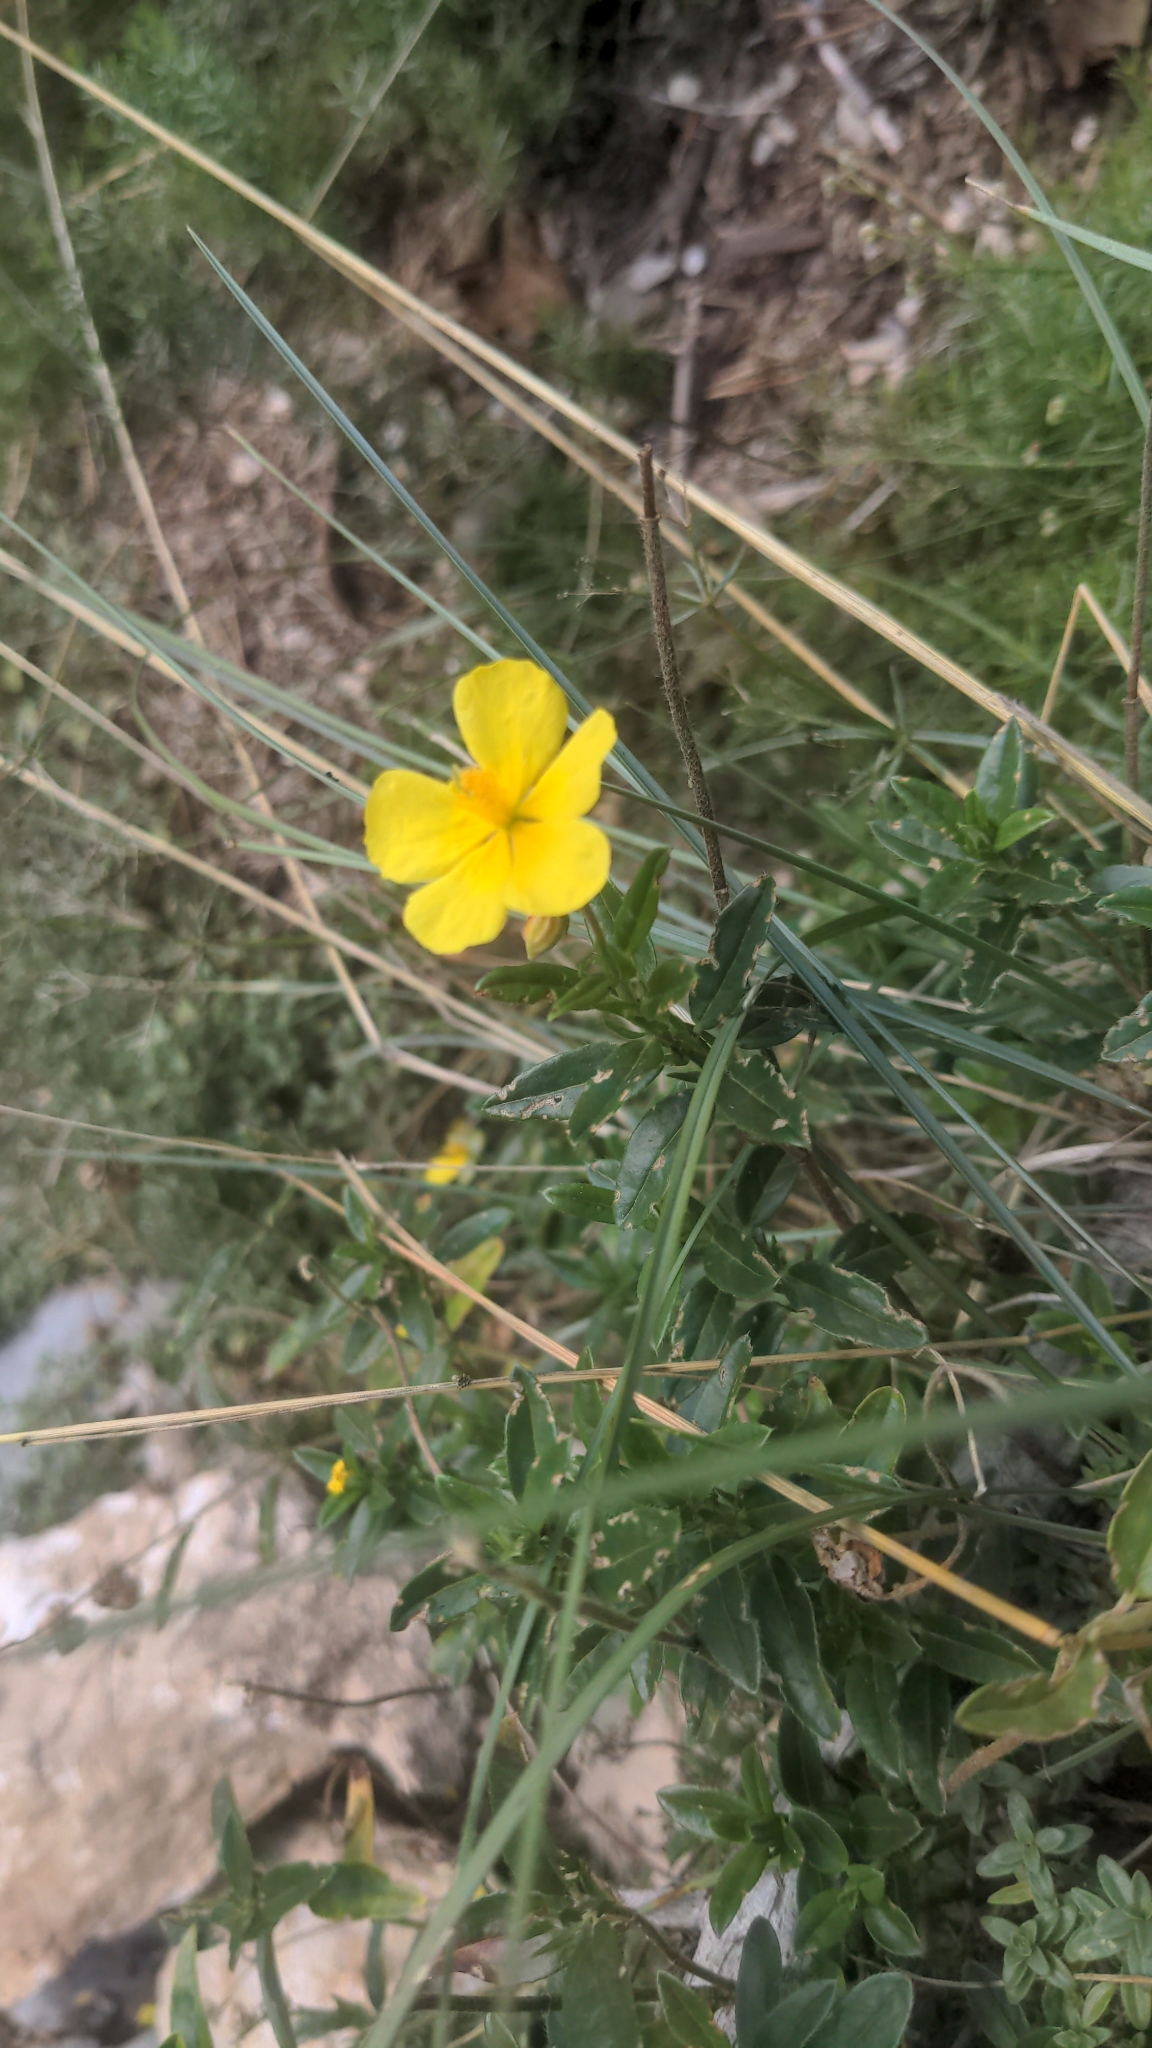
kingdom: Plantae
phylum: Tracheophyta
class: Magnoliopsida
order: Malvales
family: Cistaceae
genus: Helianthemum
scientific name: Helianthemum nummularium
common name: Common rock-rose
